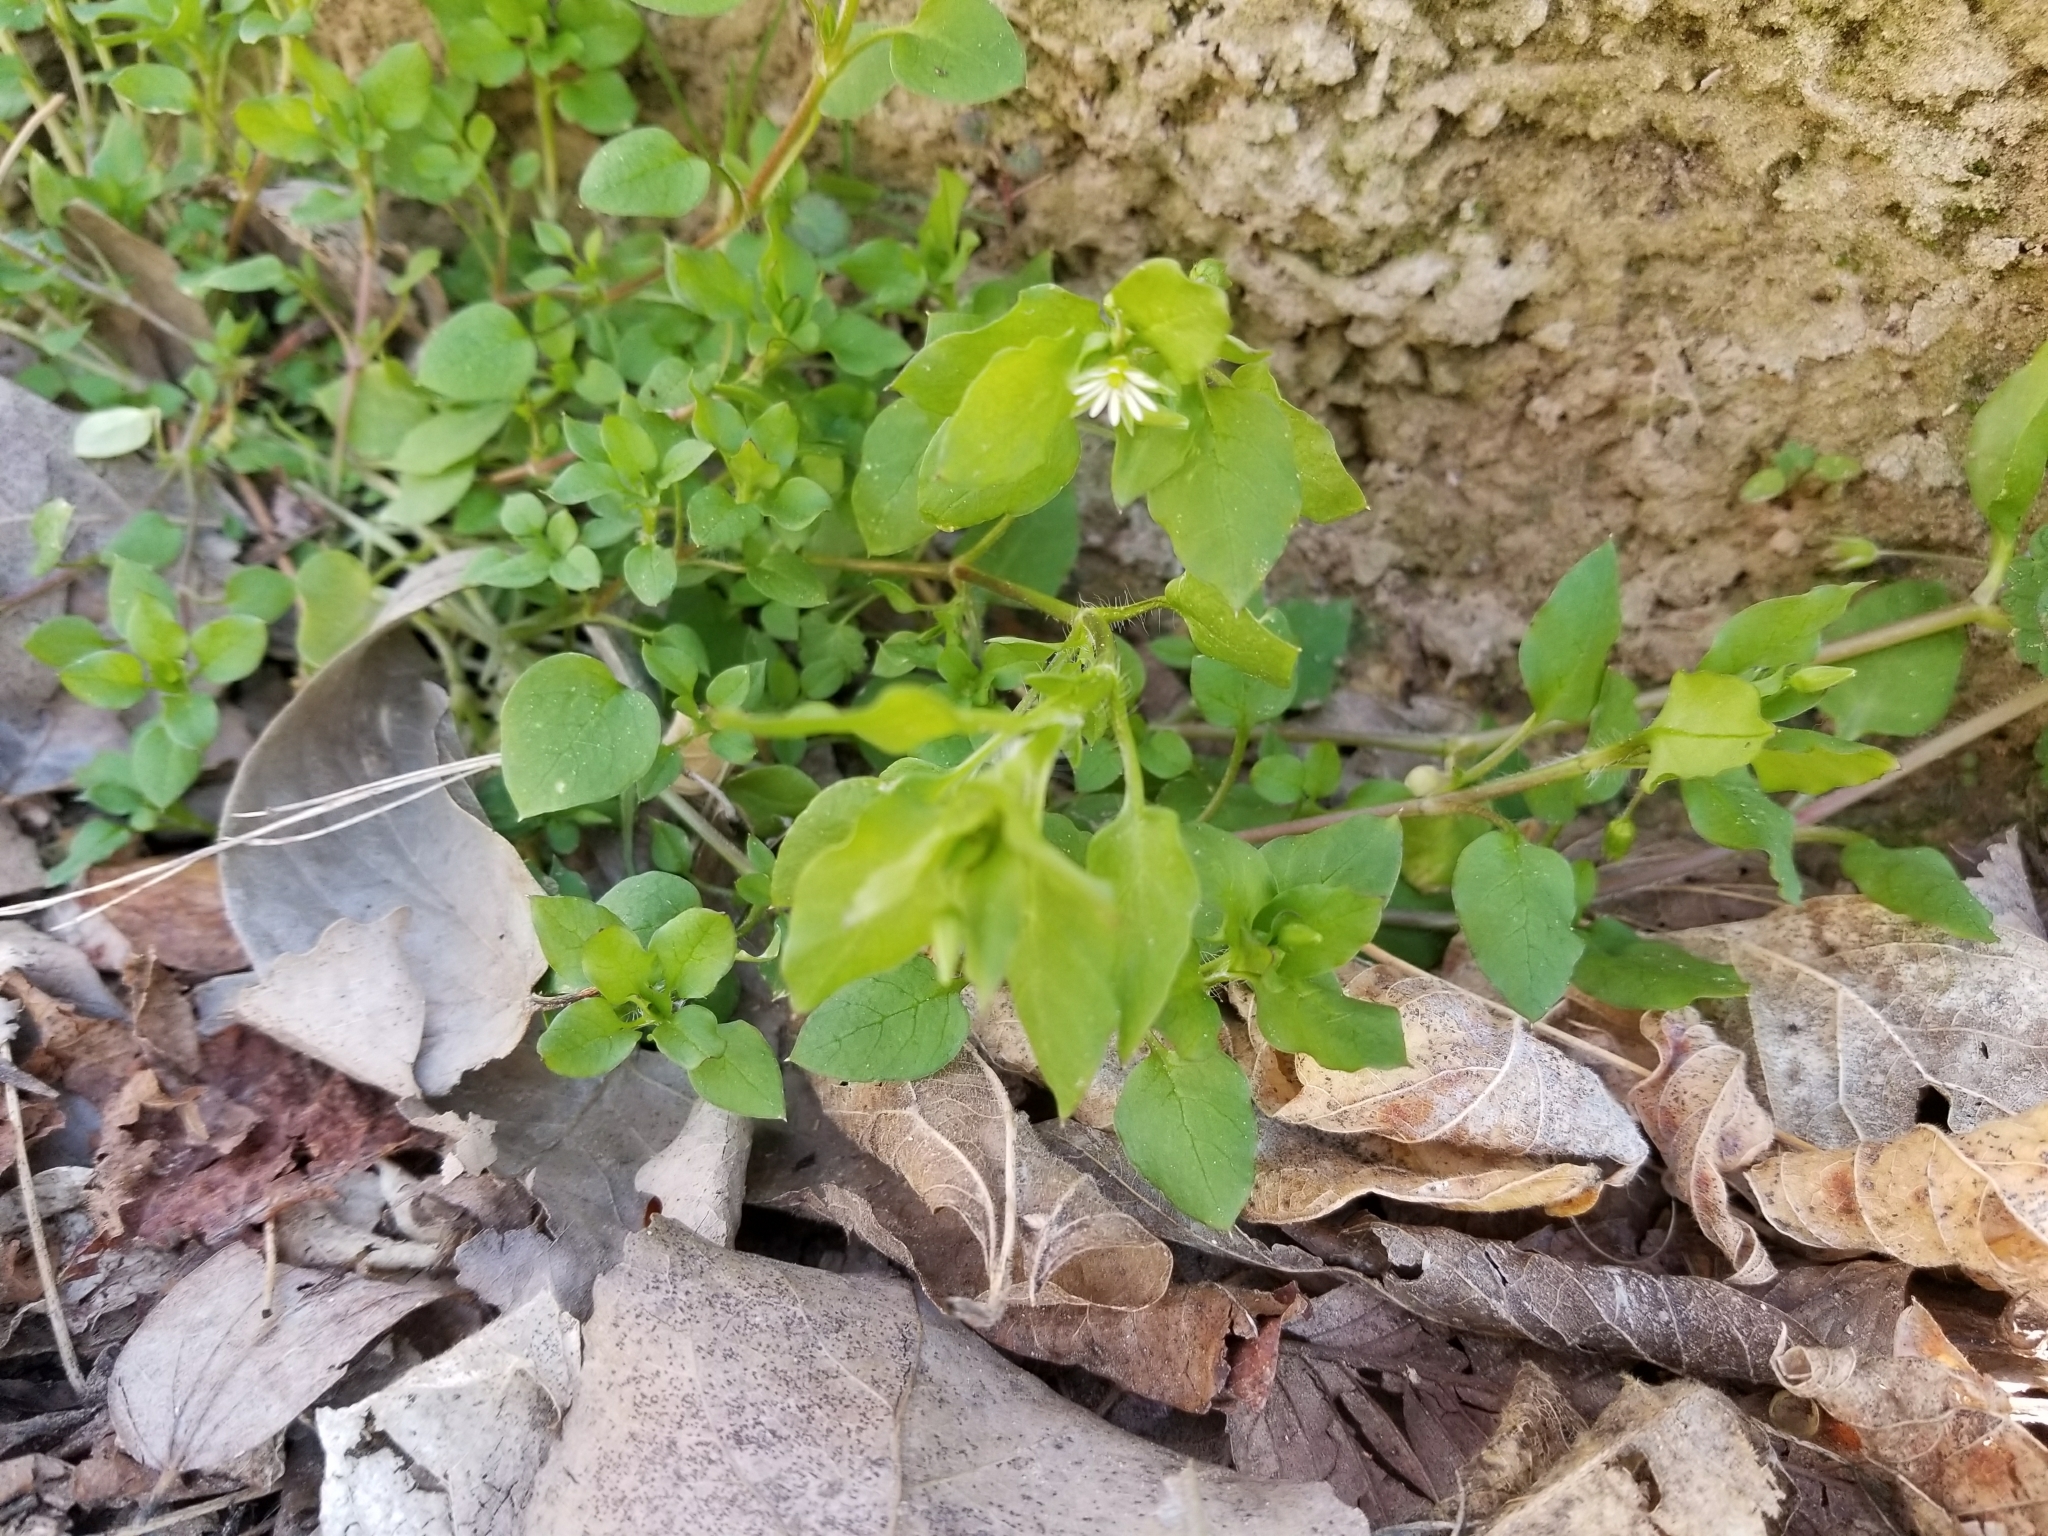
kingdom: Plantae
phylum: Tracheophyta
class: Magnoliopsida
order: Caryophyllales
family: Caryophyllaceae
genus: Stellaria
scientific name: Stellaria media
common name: Common chickweed
